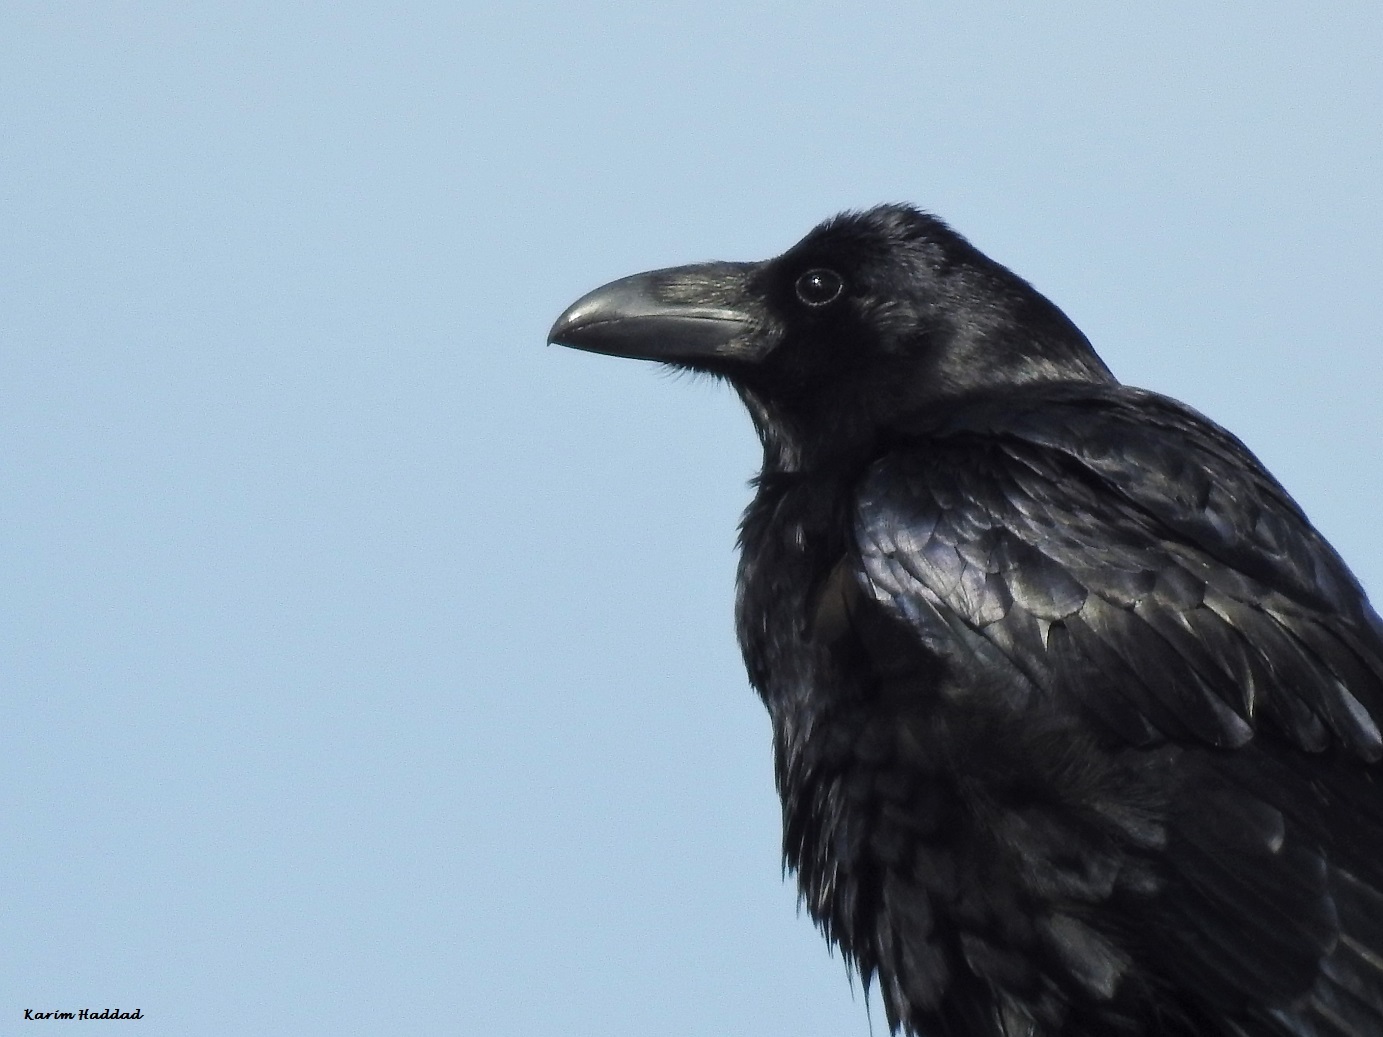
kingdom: Animalia
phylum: Chordata
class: Aves
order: Passeriformes
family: Corvidae
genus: Corvus
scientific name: Corvus corax
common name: Common raven
